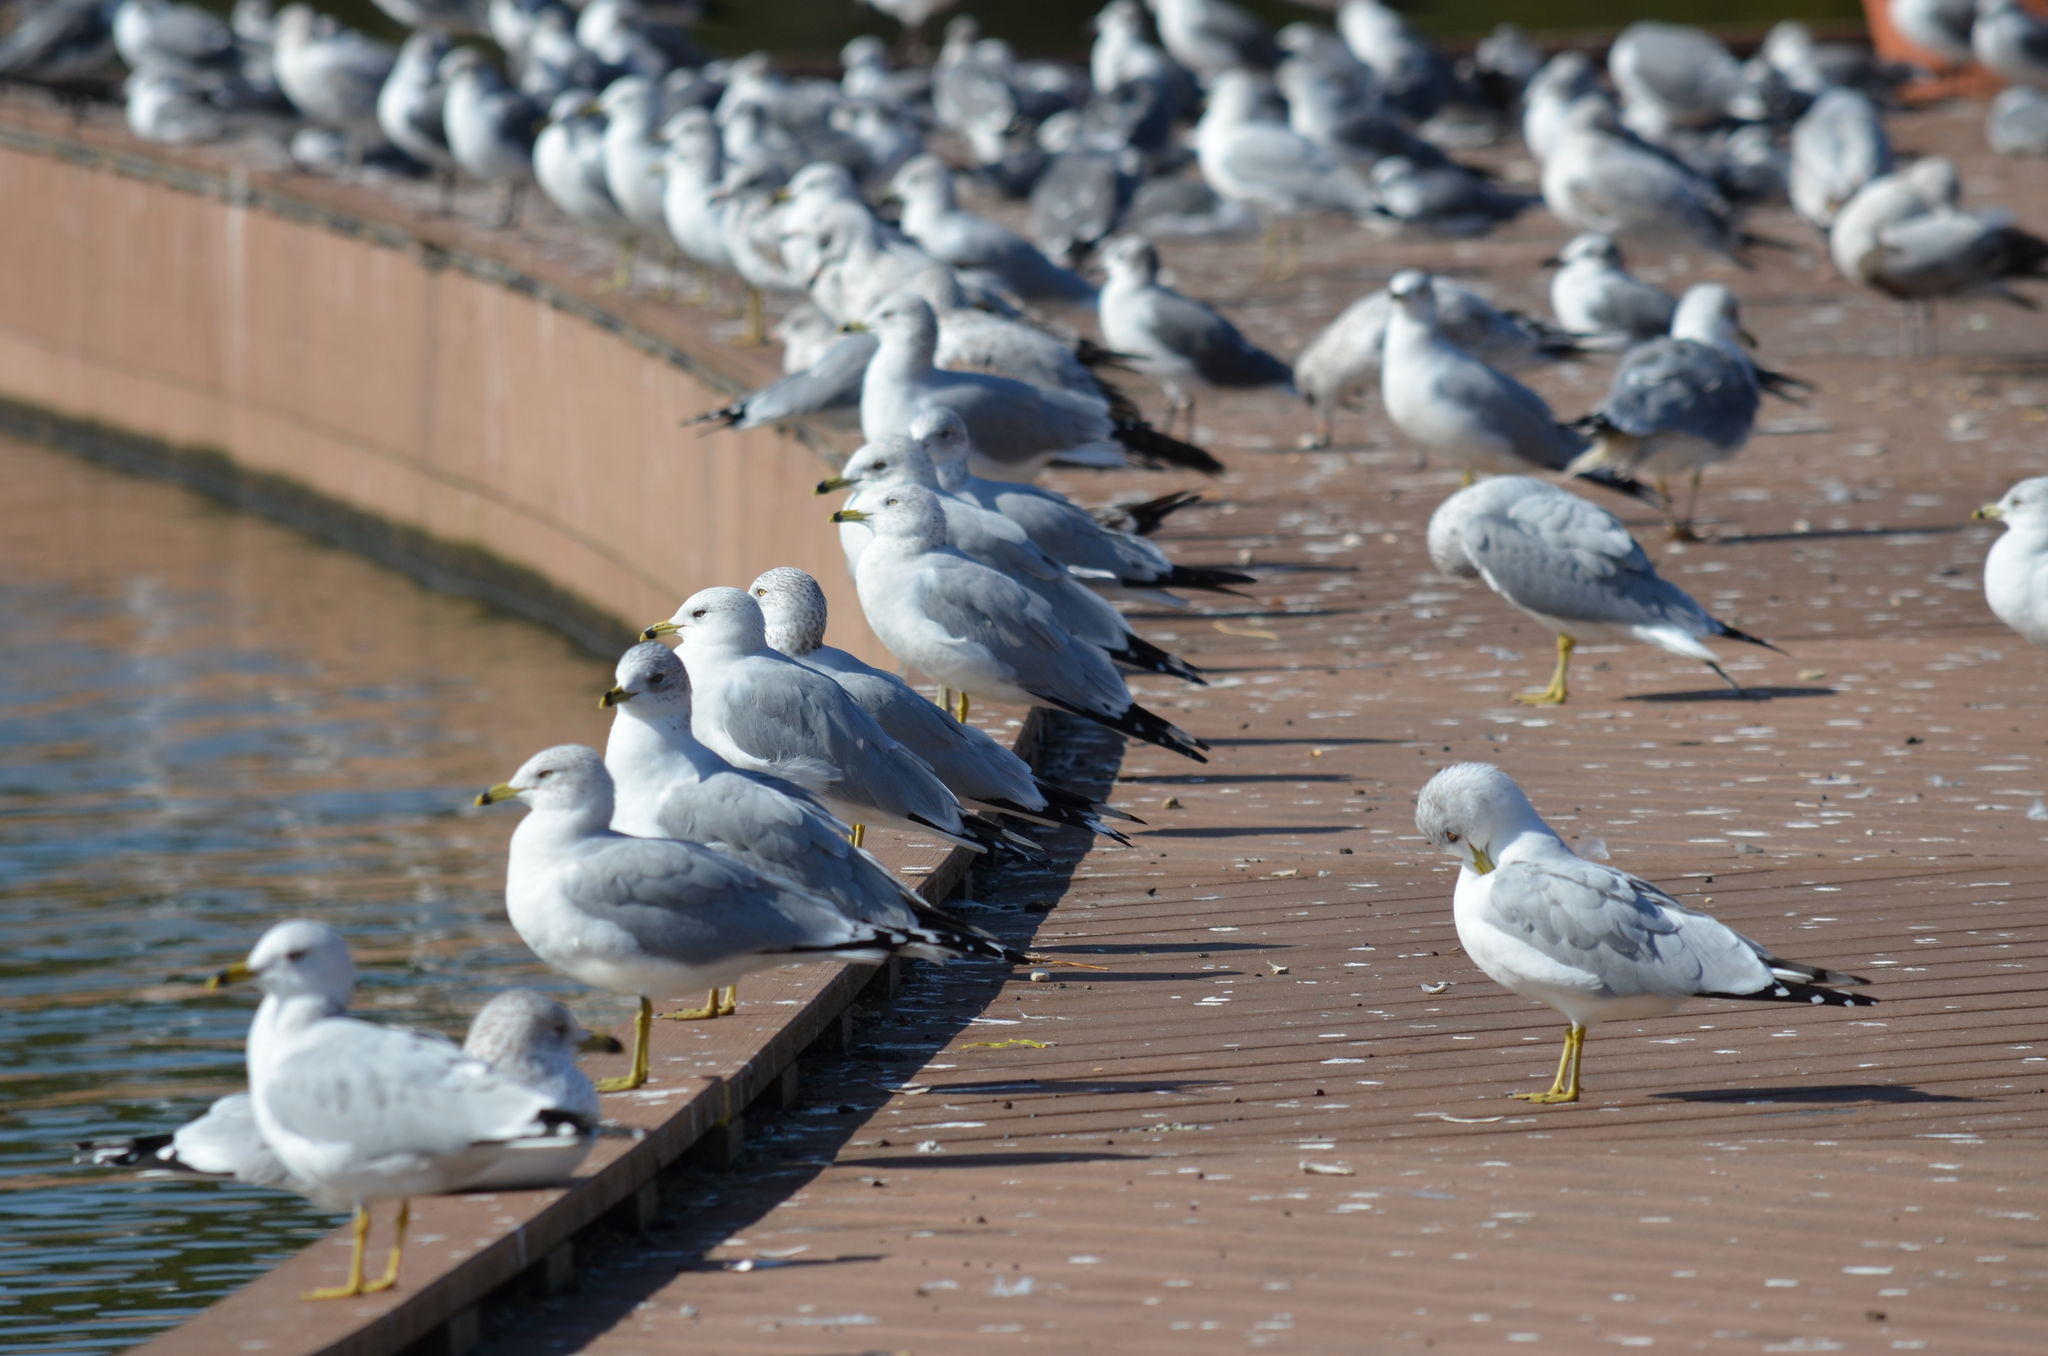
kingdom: Animalia
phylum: Chordata
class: Aves
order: Charadriiformes
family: Laridae
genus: Larus
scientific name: Larus delawarensis
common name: Ring-billed gull
